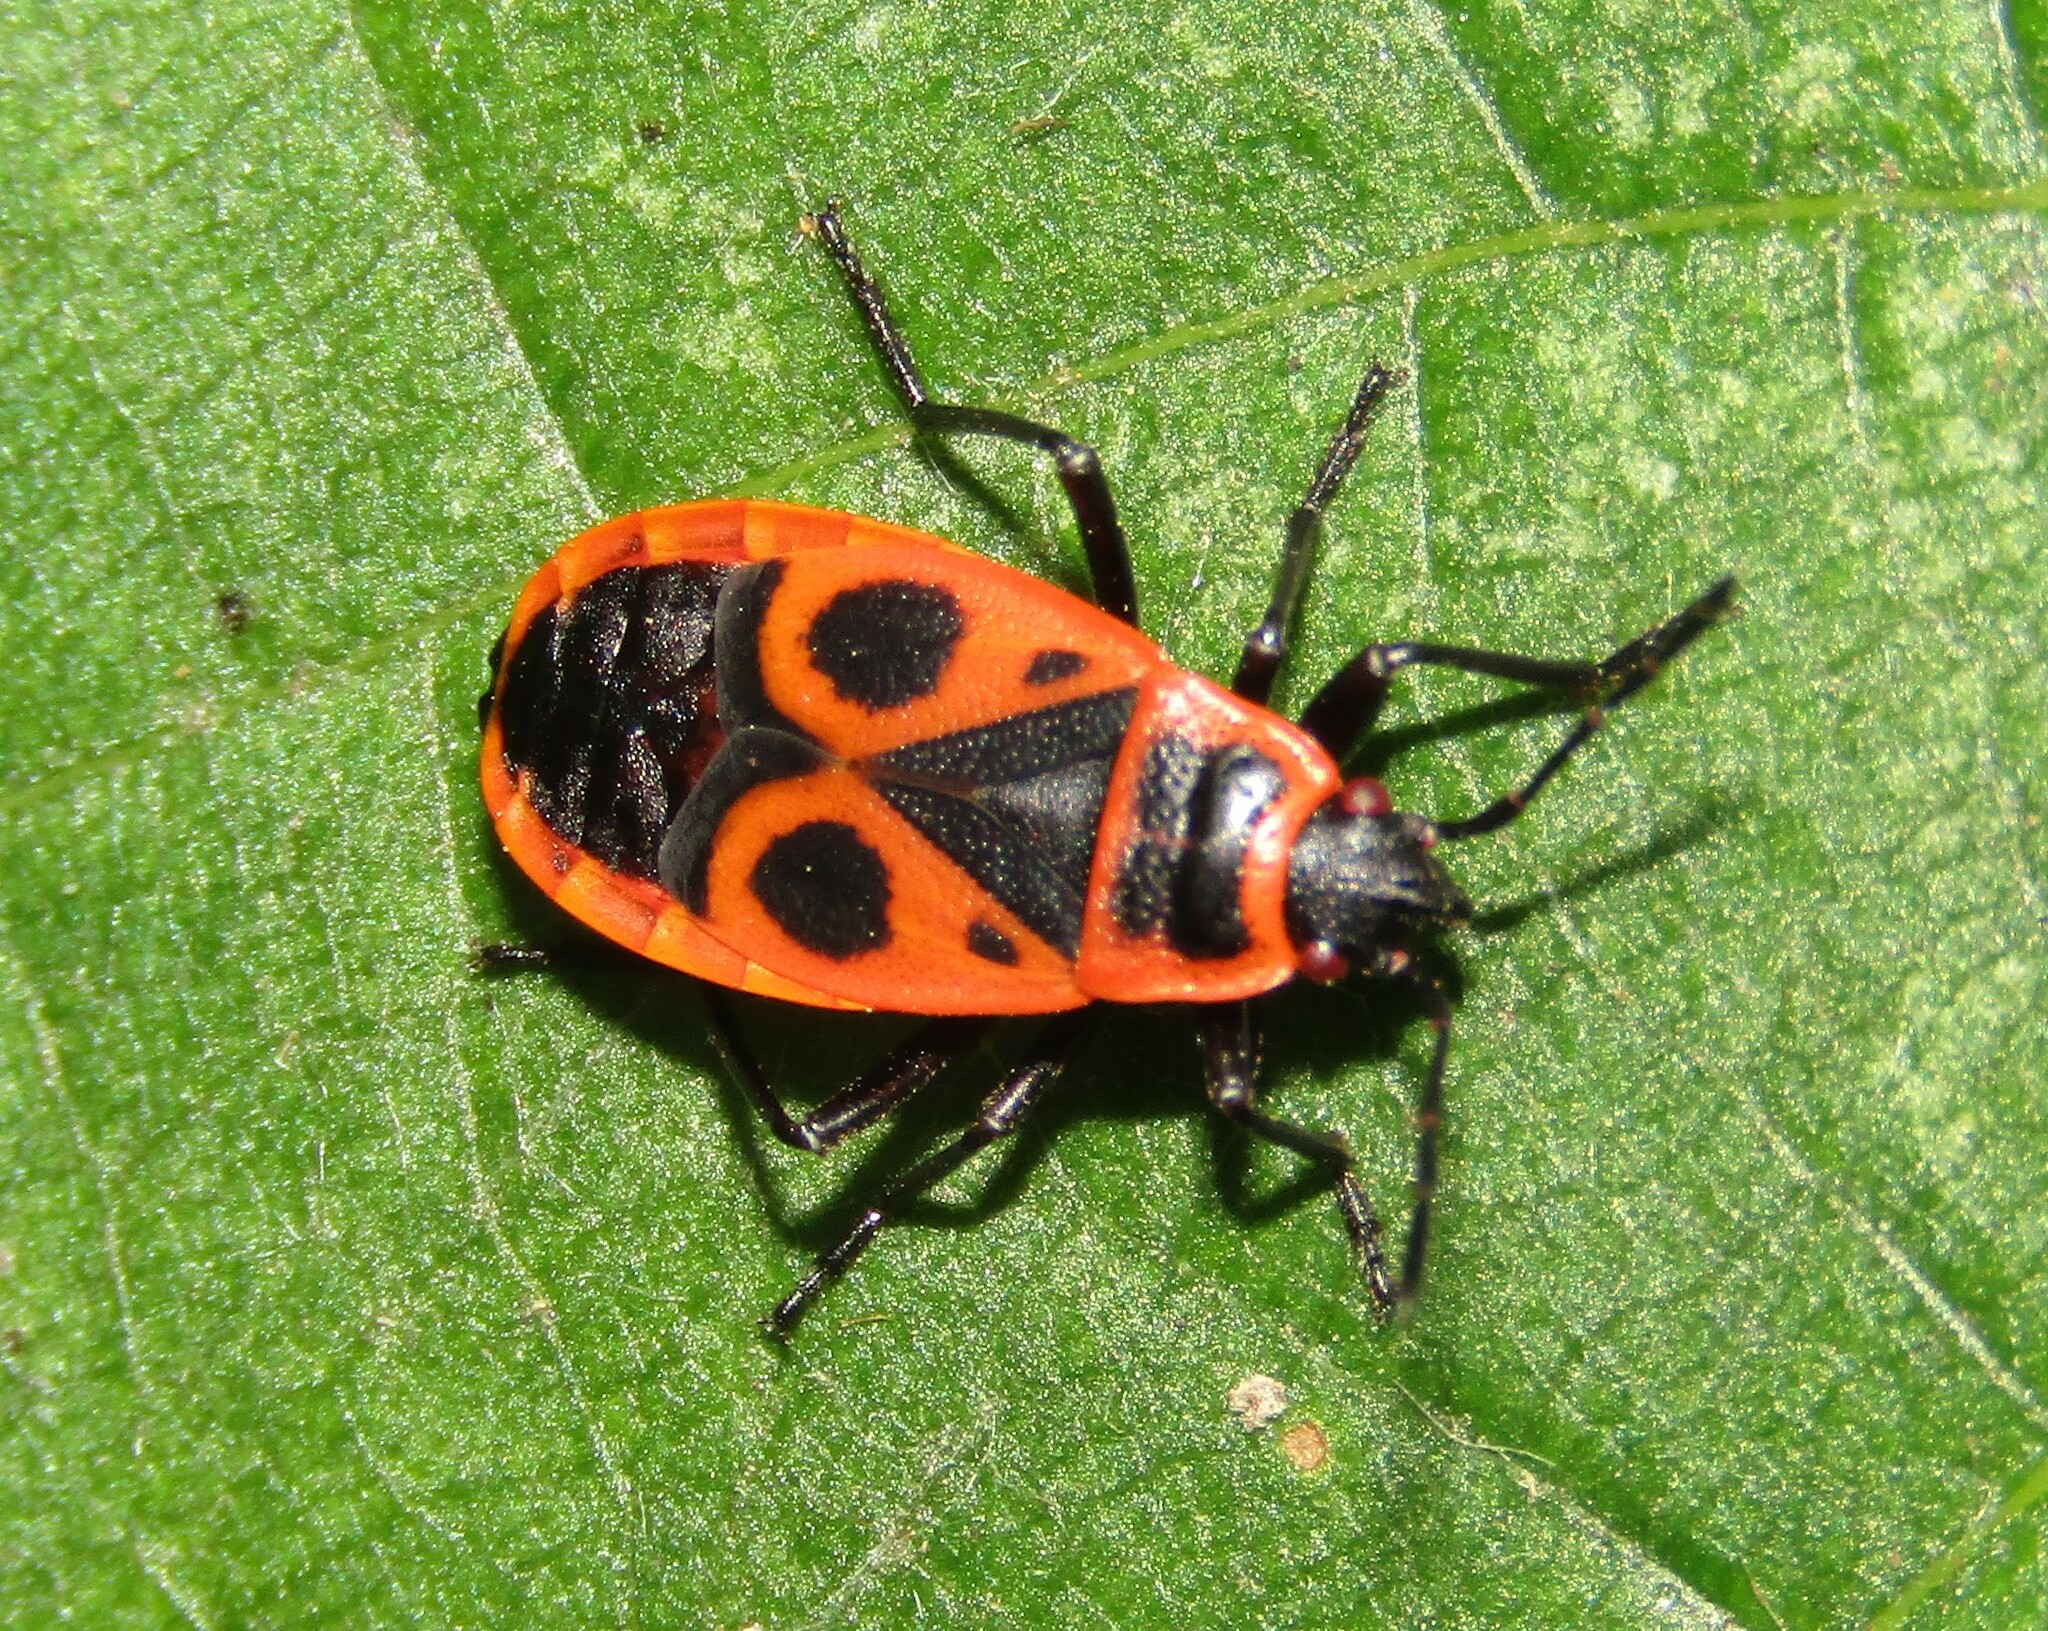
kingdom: Animalia
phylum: Arthropoda
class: Insecta
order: Hemiptera
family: Pyrrhocoridae
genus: Pyrrhocoris
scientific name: Pyrrhocoris apterus
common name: Firebug
